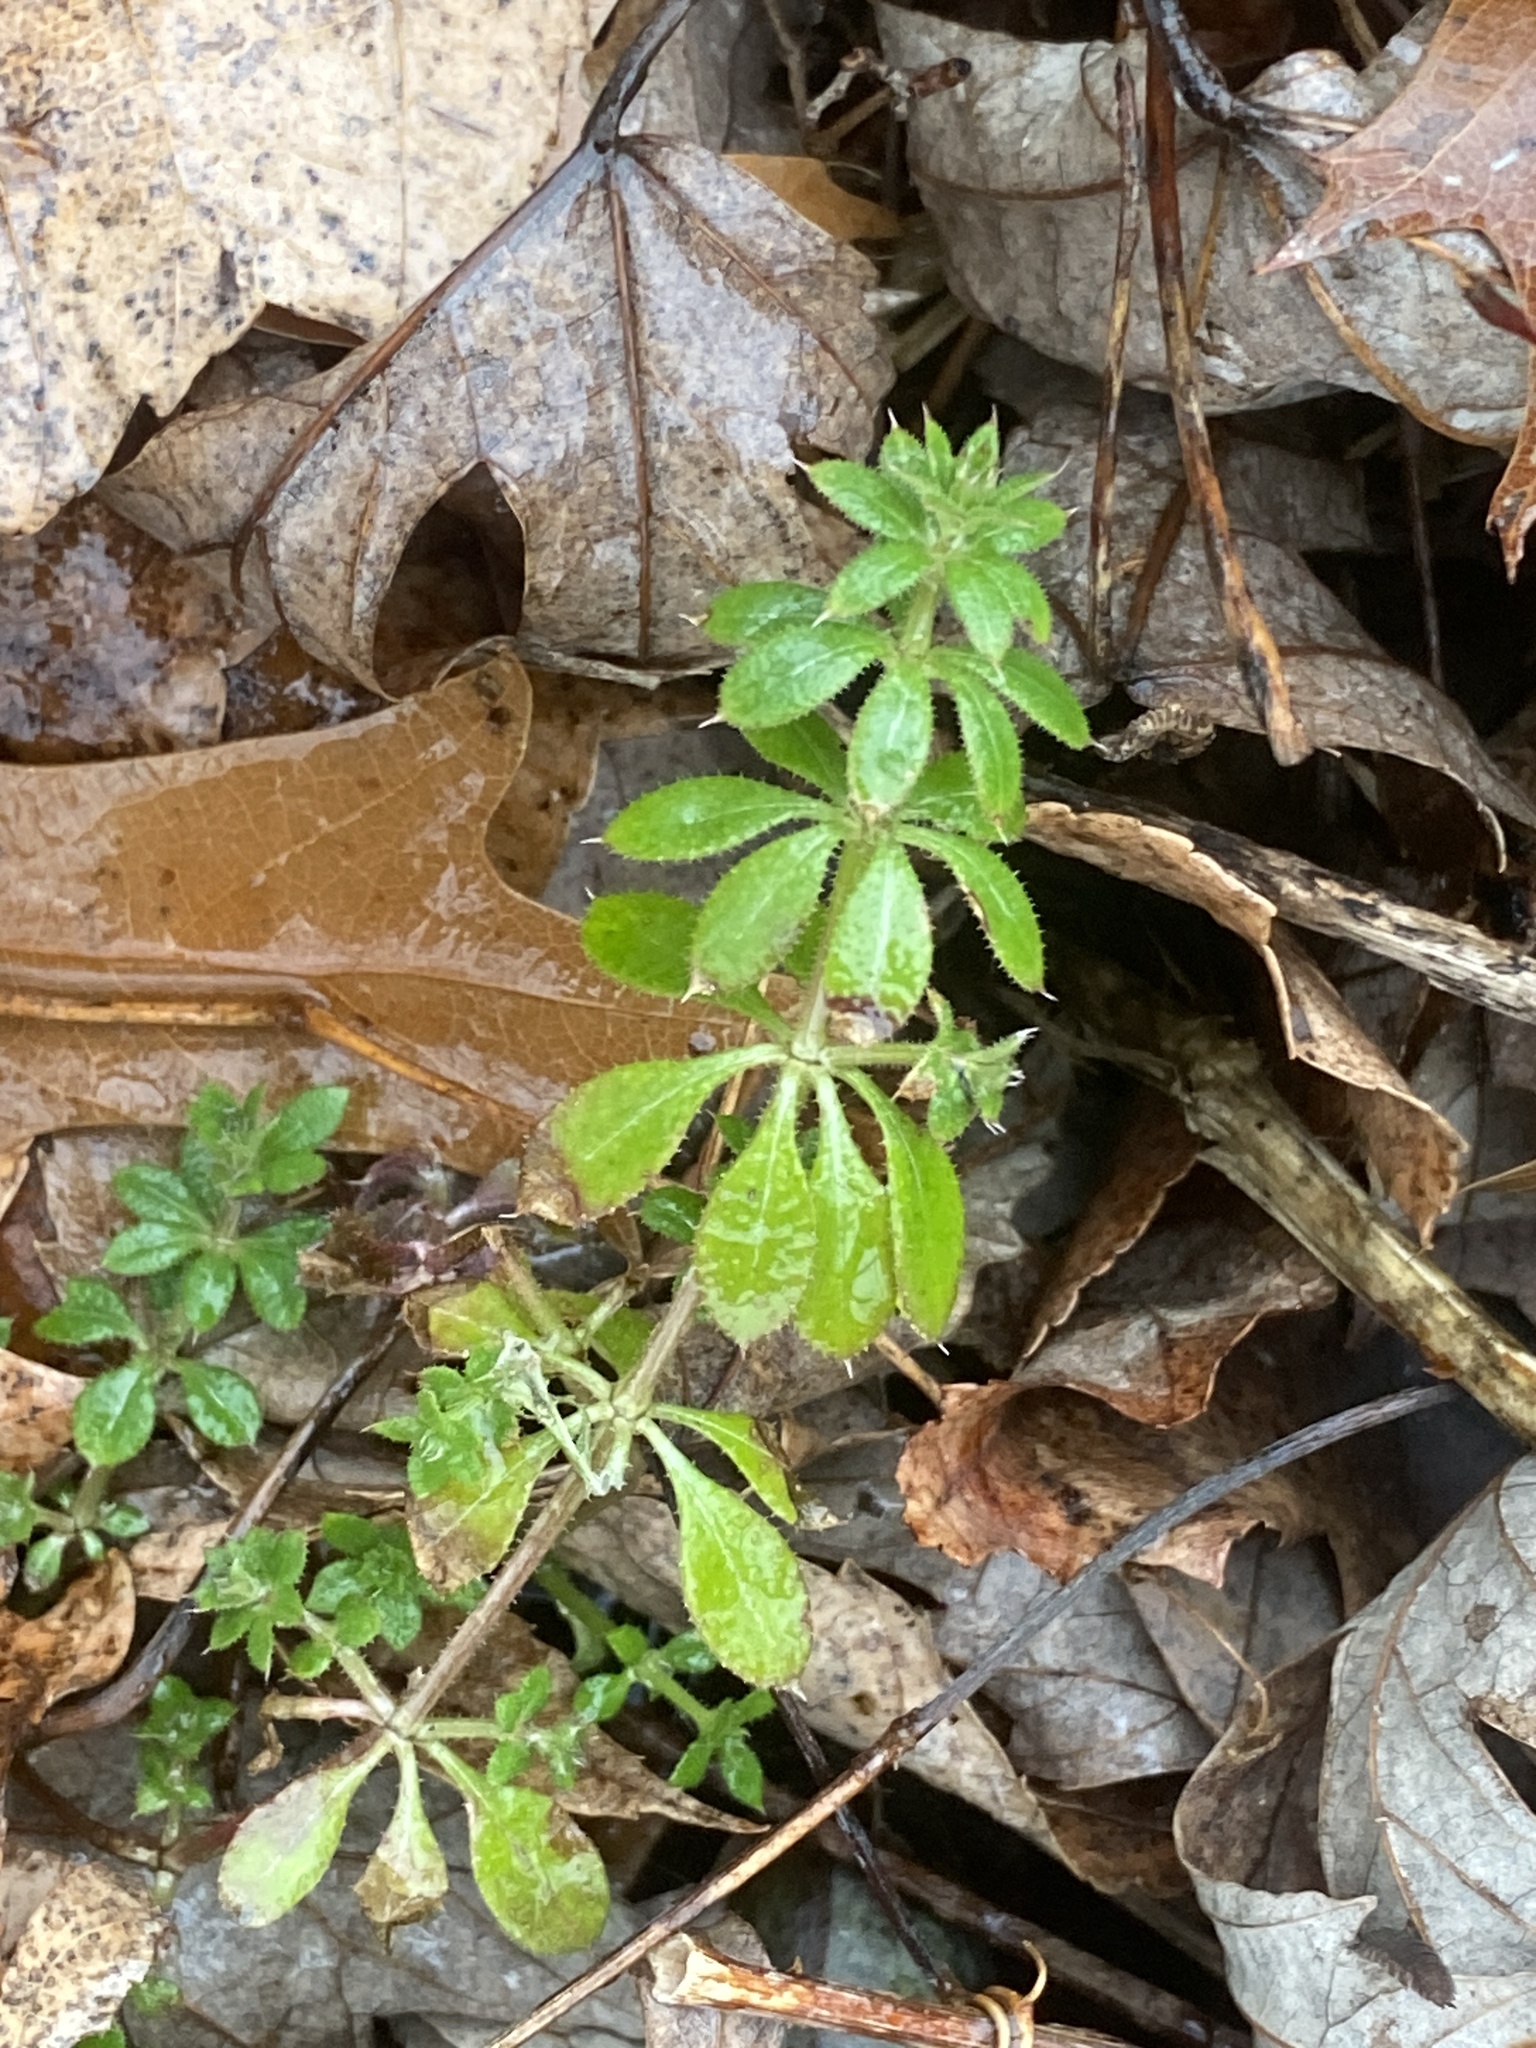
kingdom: Plantae
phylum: Tracheophyta
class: Magnoliopsida
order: Gentianales
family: Rubiaceae
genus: Galium
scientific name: Galium aparine
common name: Cleavers
